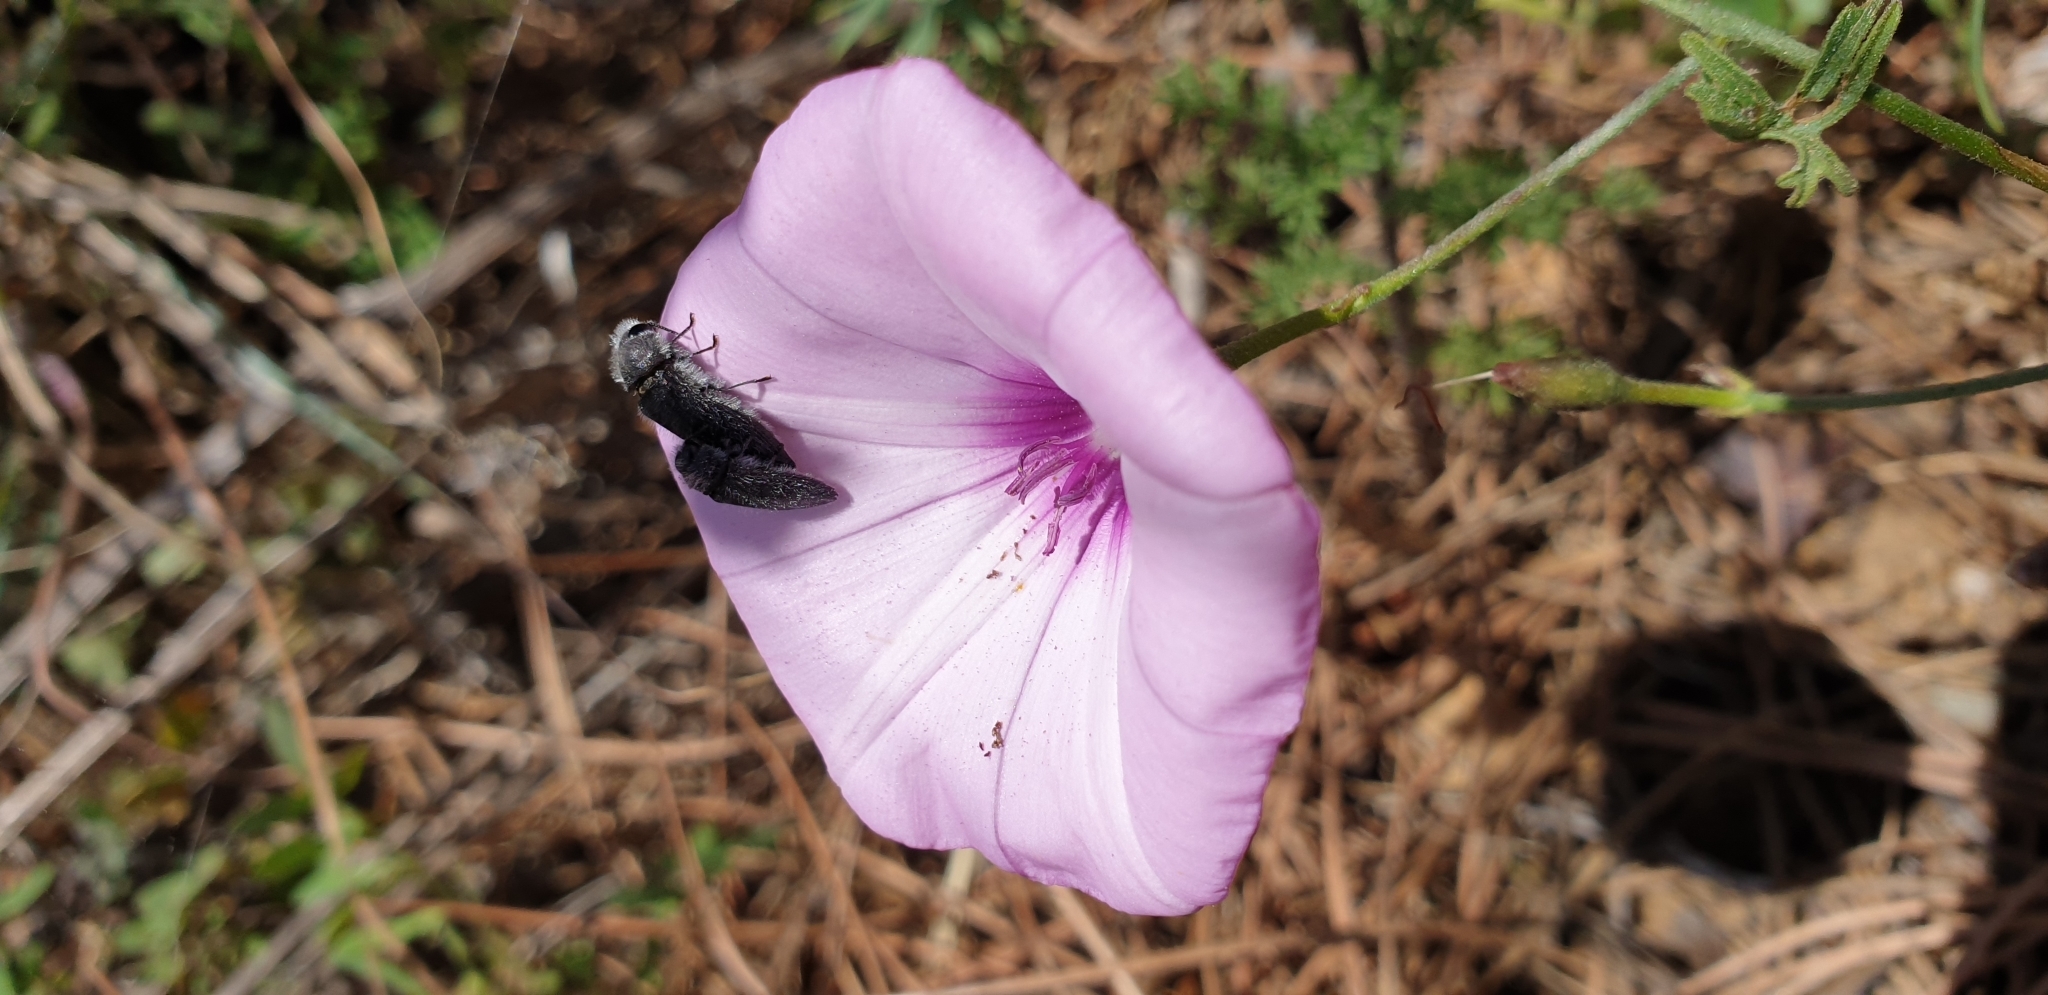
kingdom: Animalia
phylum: Arthropoda
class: Insecta
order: Coleoptera
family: Buprestidae
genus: Acmaeodera
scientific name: Acmaeodera cylindrica
